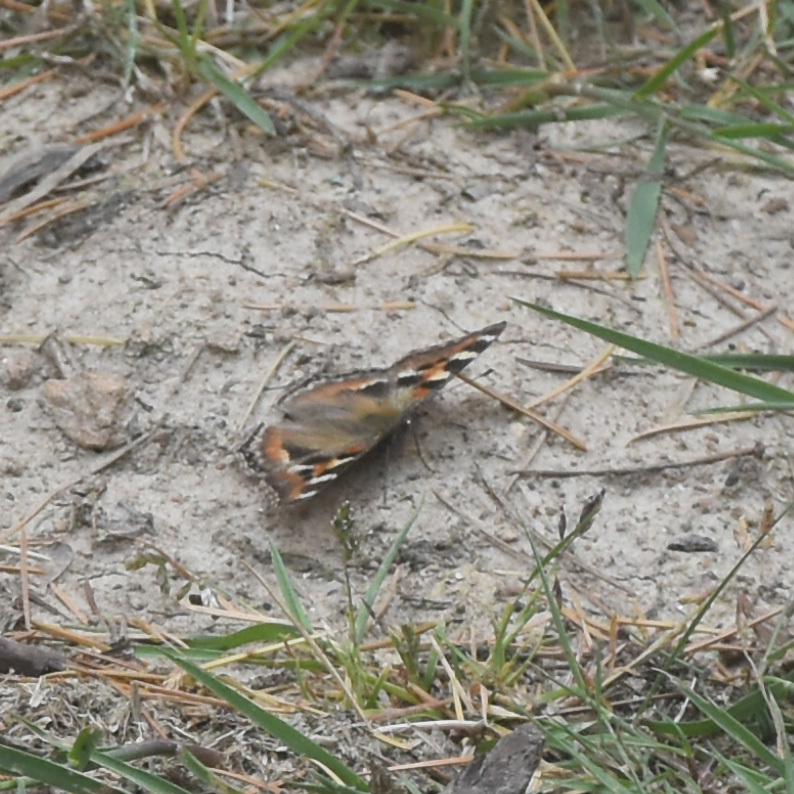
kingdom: Animalia
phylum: Arthropoda
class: Insecta
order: Lepidoptera
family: Nymphalidae
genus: Aglais
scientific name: Aglais caschmirensis
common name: Indian tortoiseshell
